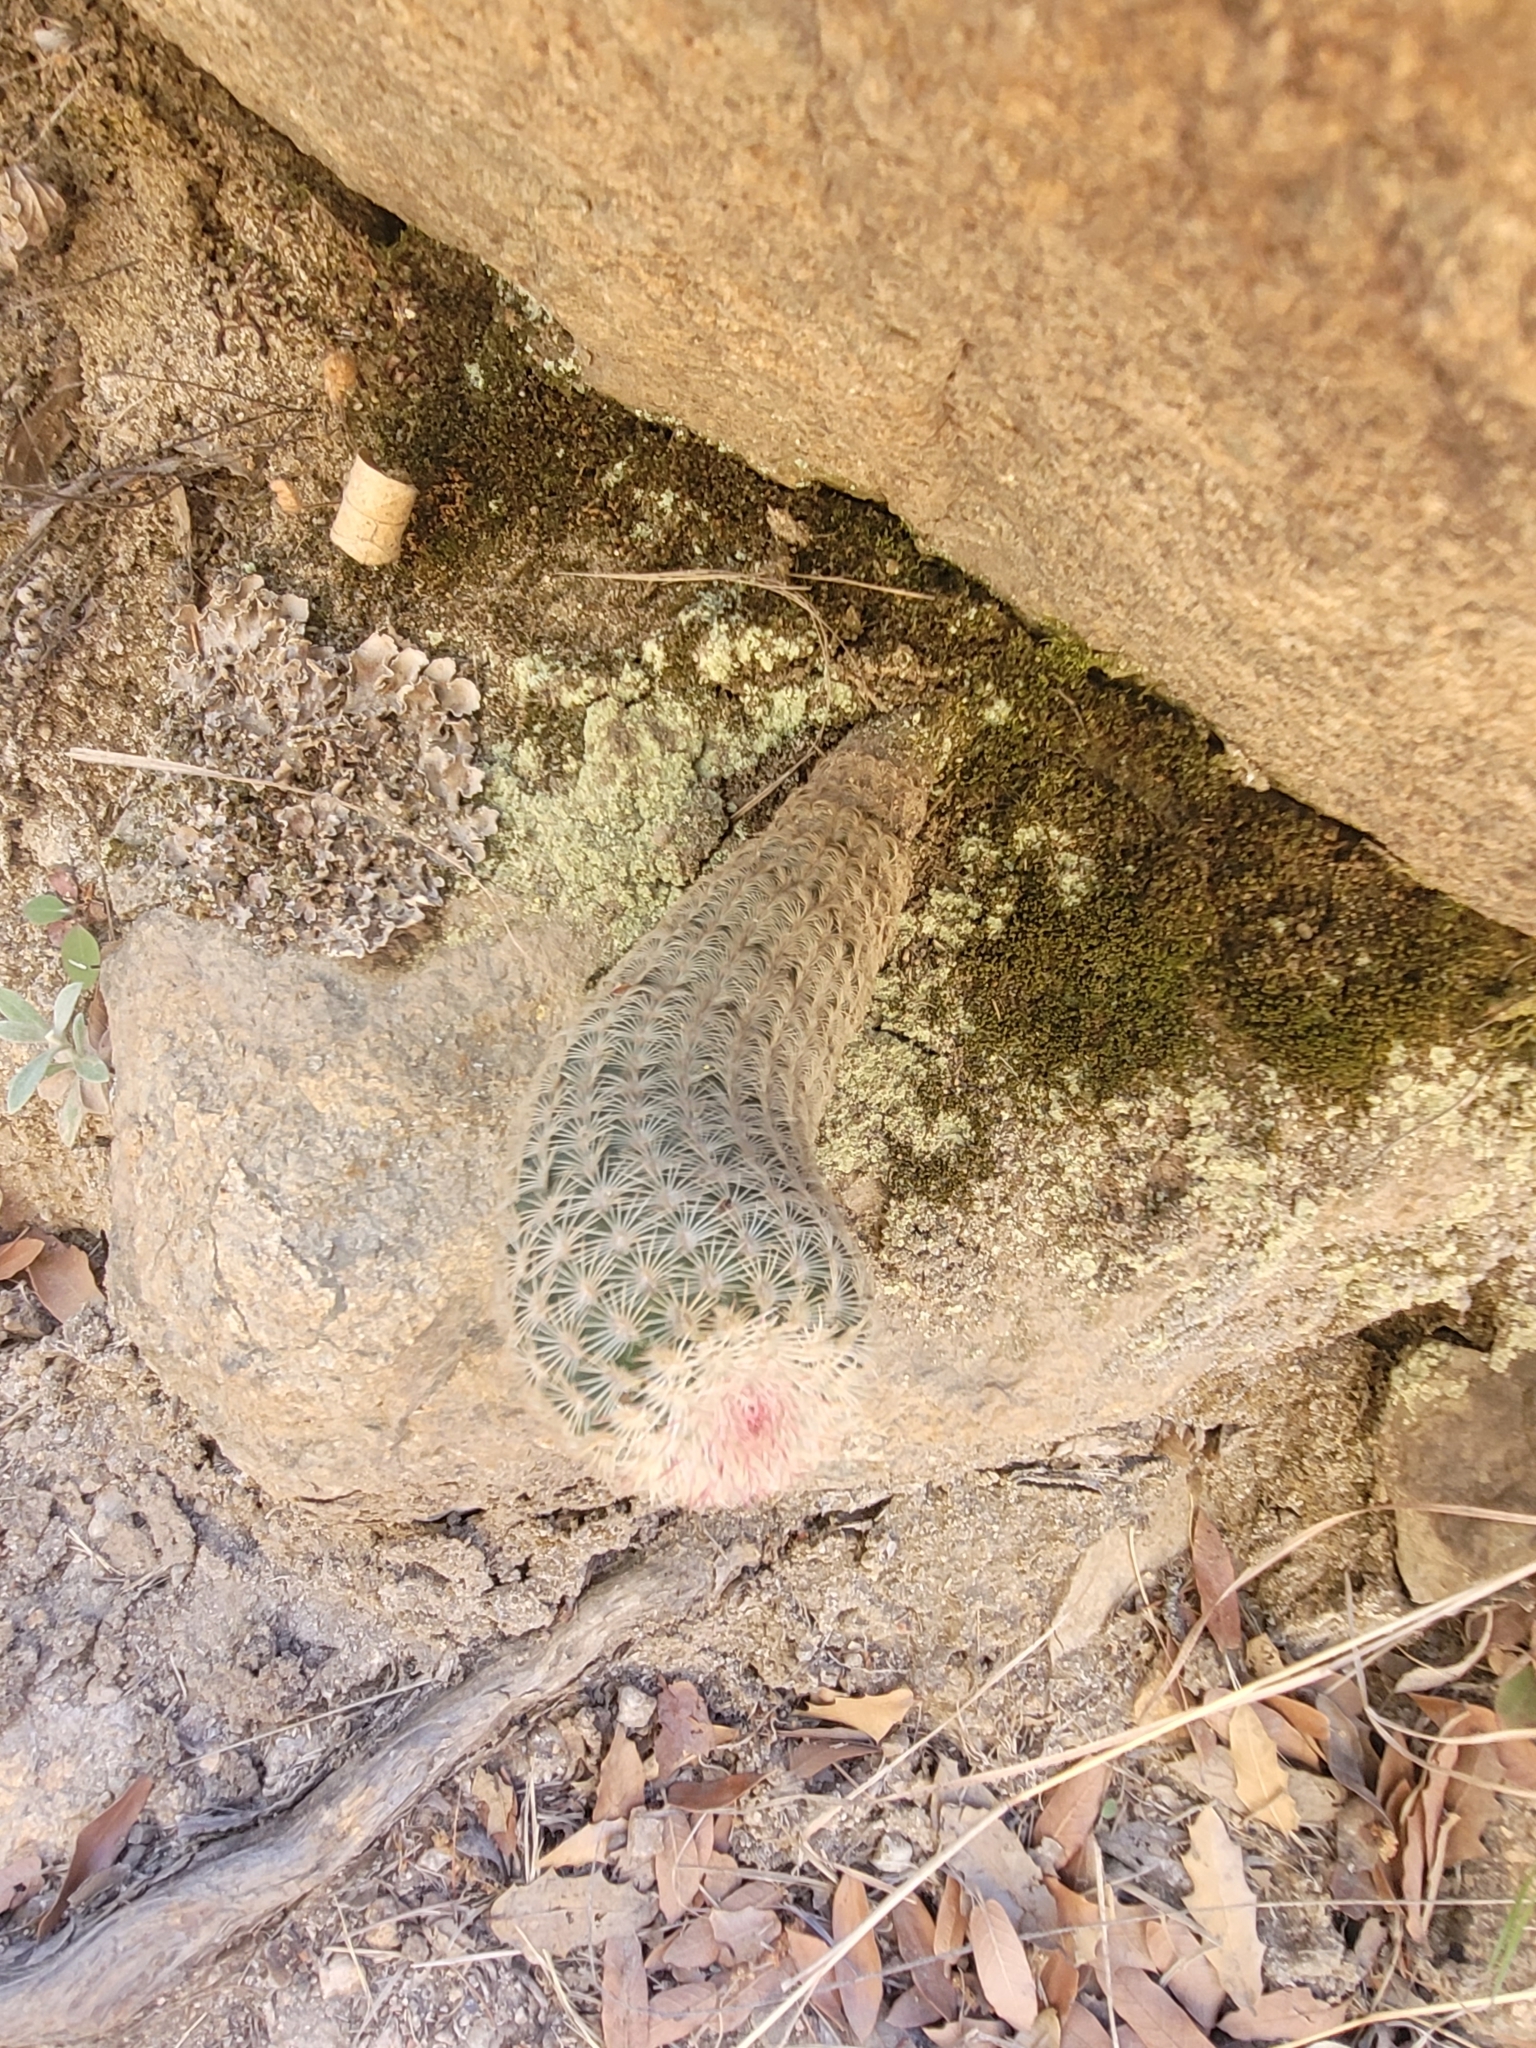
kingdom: Plantae
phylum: Tracheophyta
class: Magnoliopsida
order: Caryophyllales
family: Cactaceae
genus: Echinocereus
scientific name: Echinocereus rigidissimus
